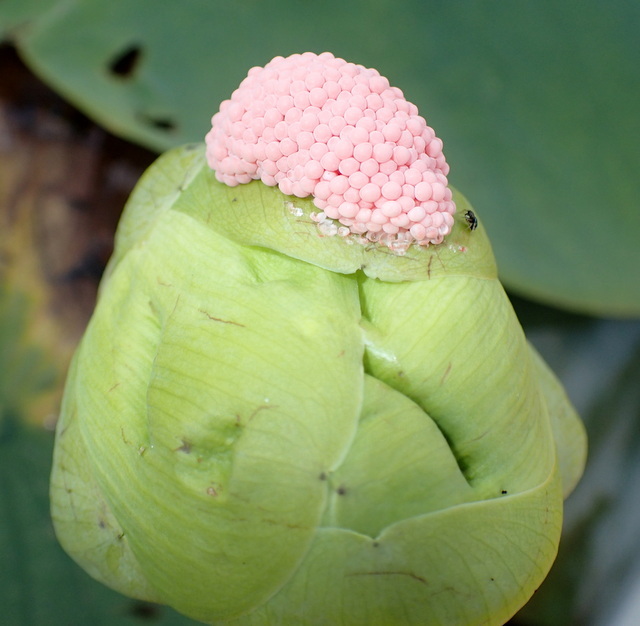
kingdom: Animalia
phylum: Mollusca
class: Gastropoda
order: Architaenioglossa
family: Ampullariidae
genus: Pomacea
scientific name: Pomacea maculata
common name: Giant applesnail
